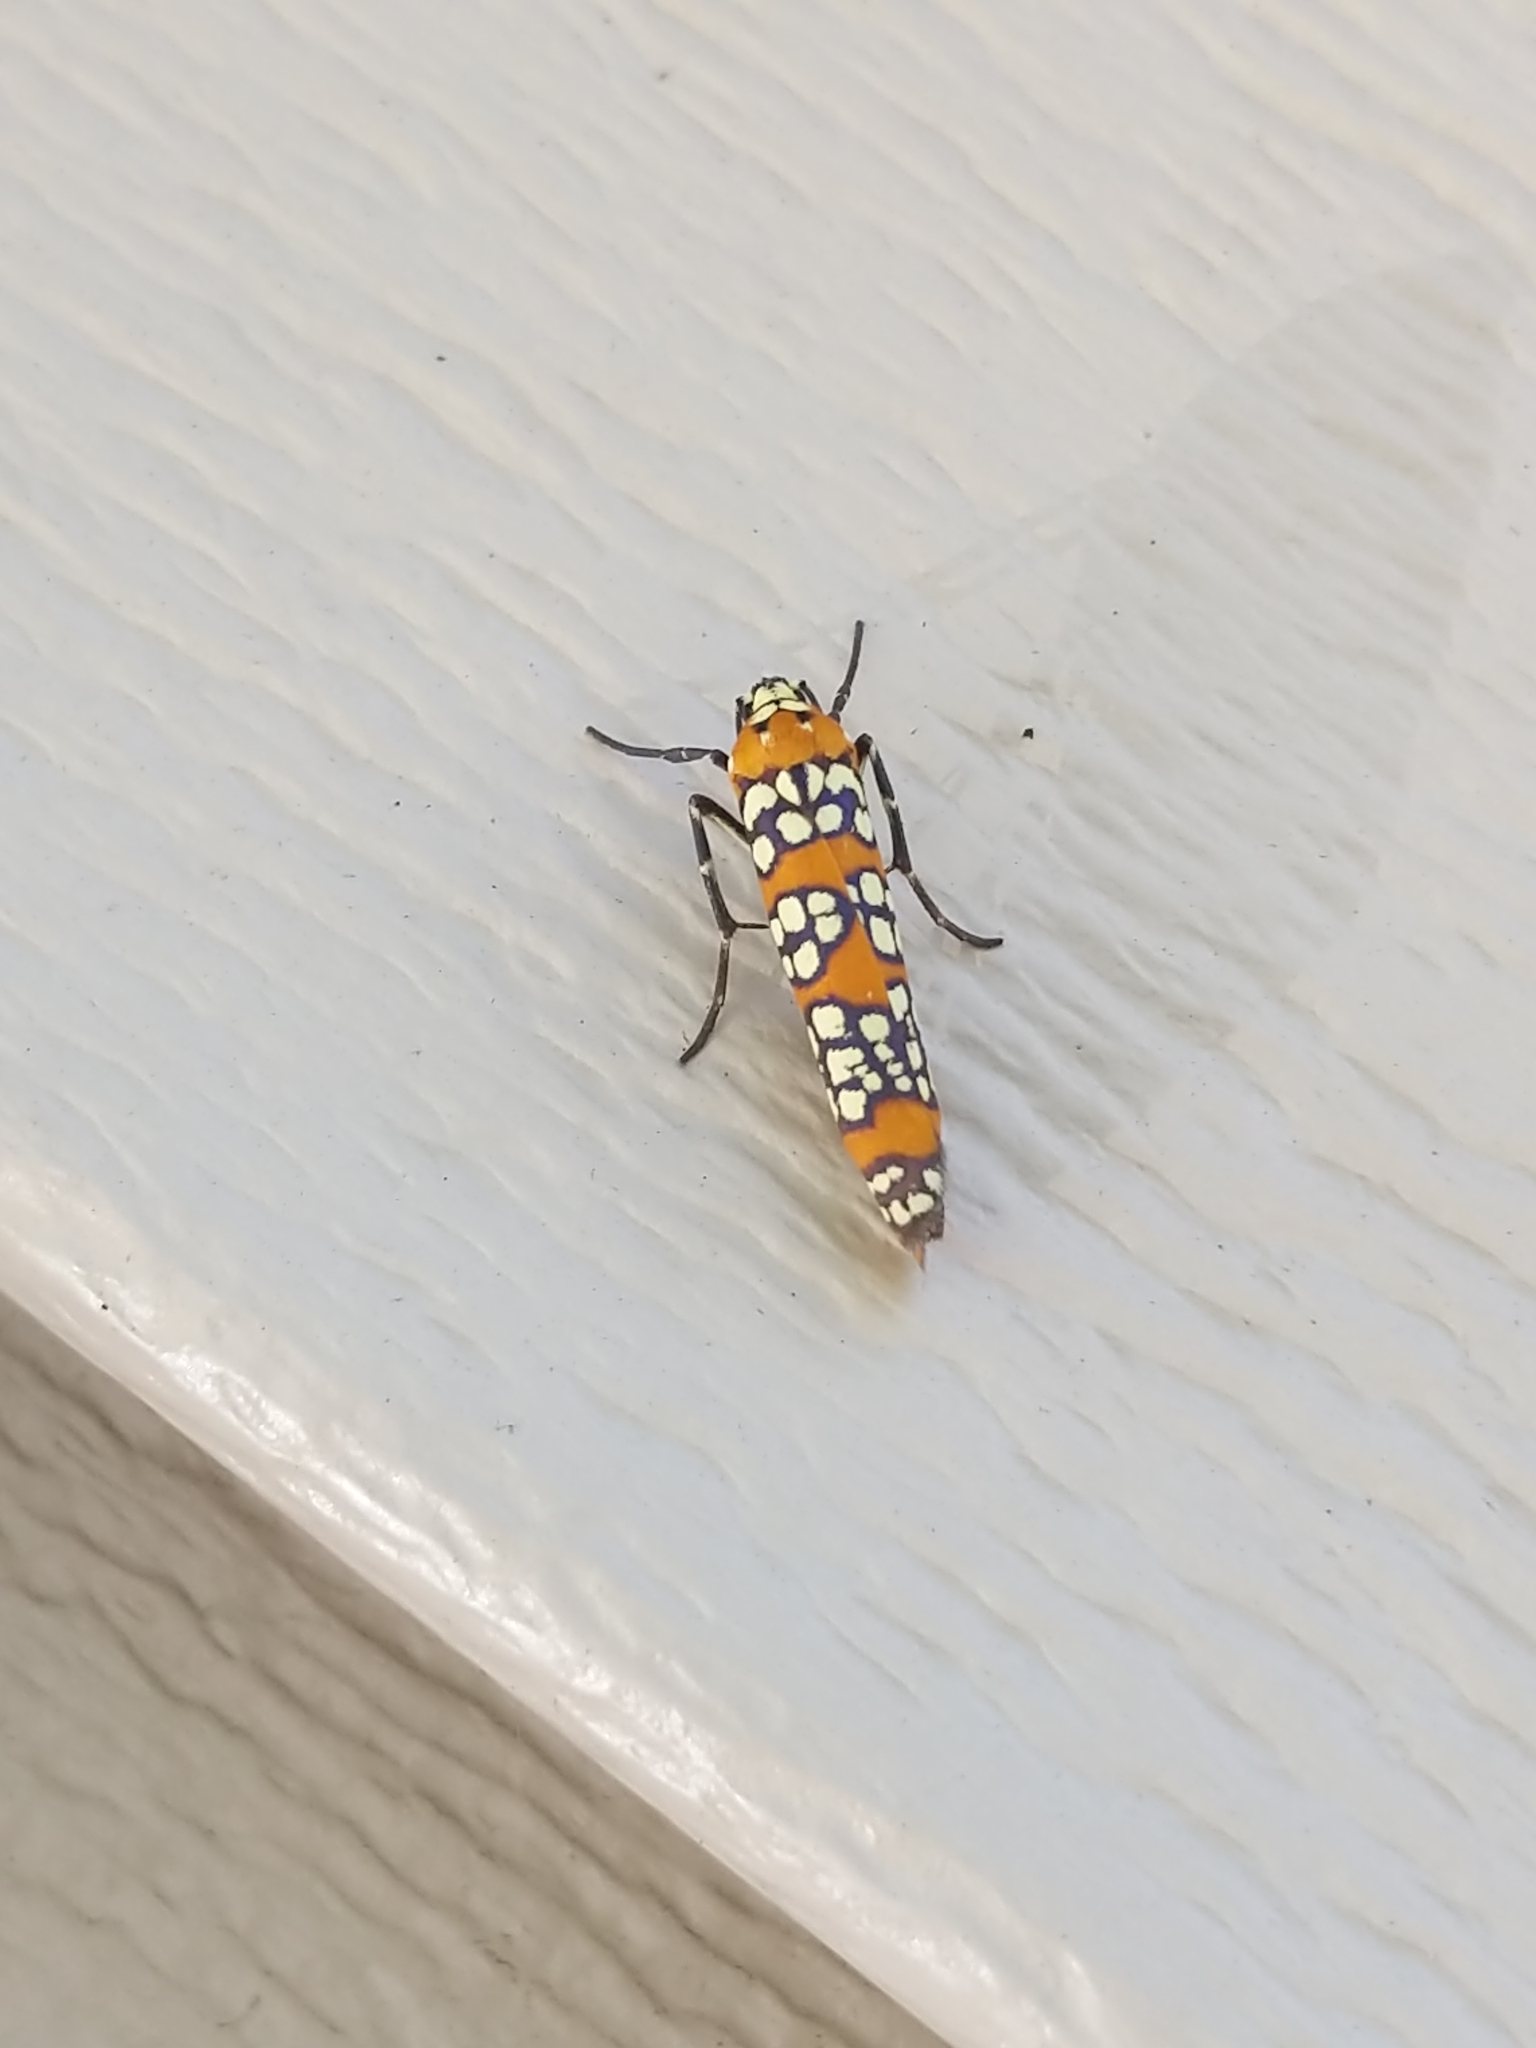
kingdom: Animalia
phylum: Arthropoda
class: Insecta
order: Lepidoptera
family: Attevidae
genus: Atteva
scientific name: Atteva punctella
